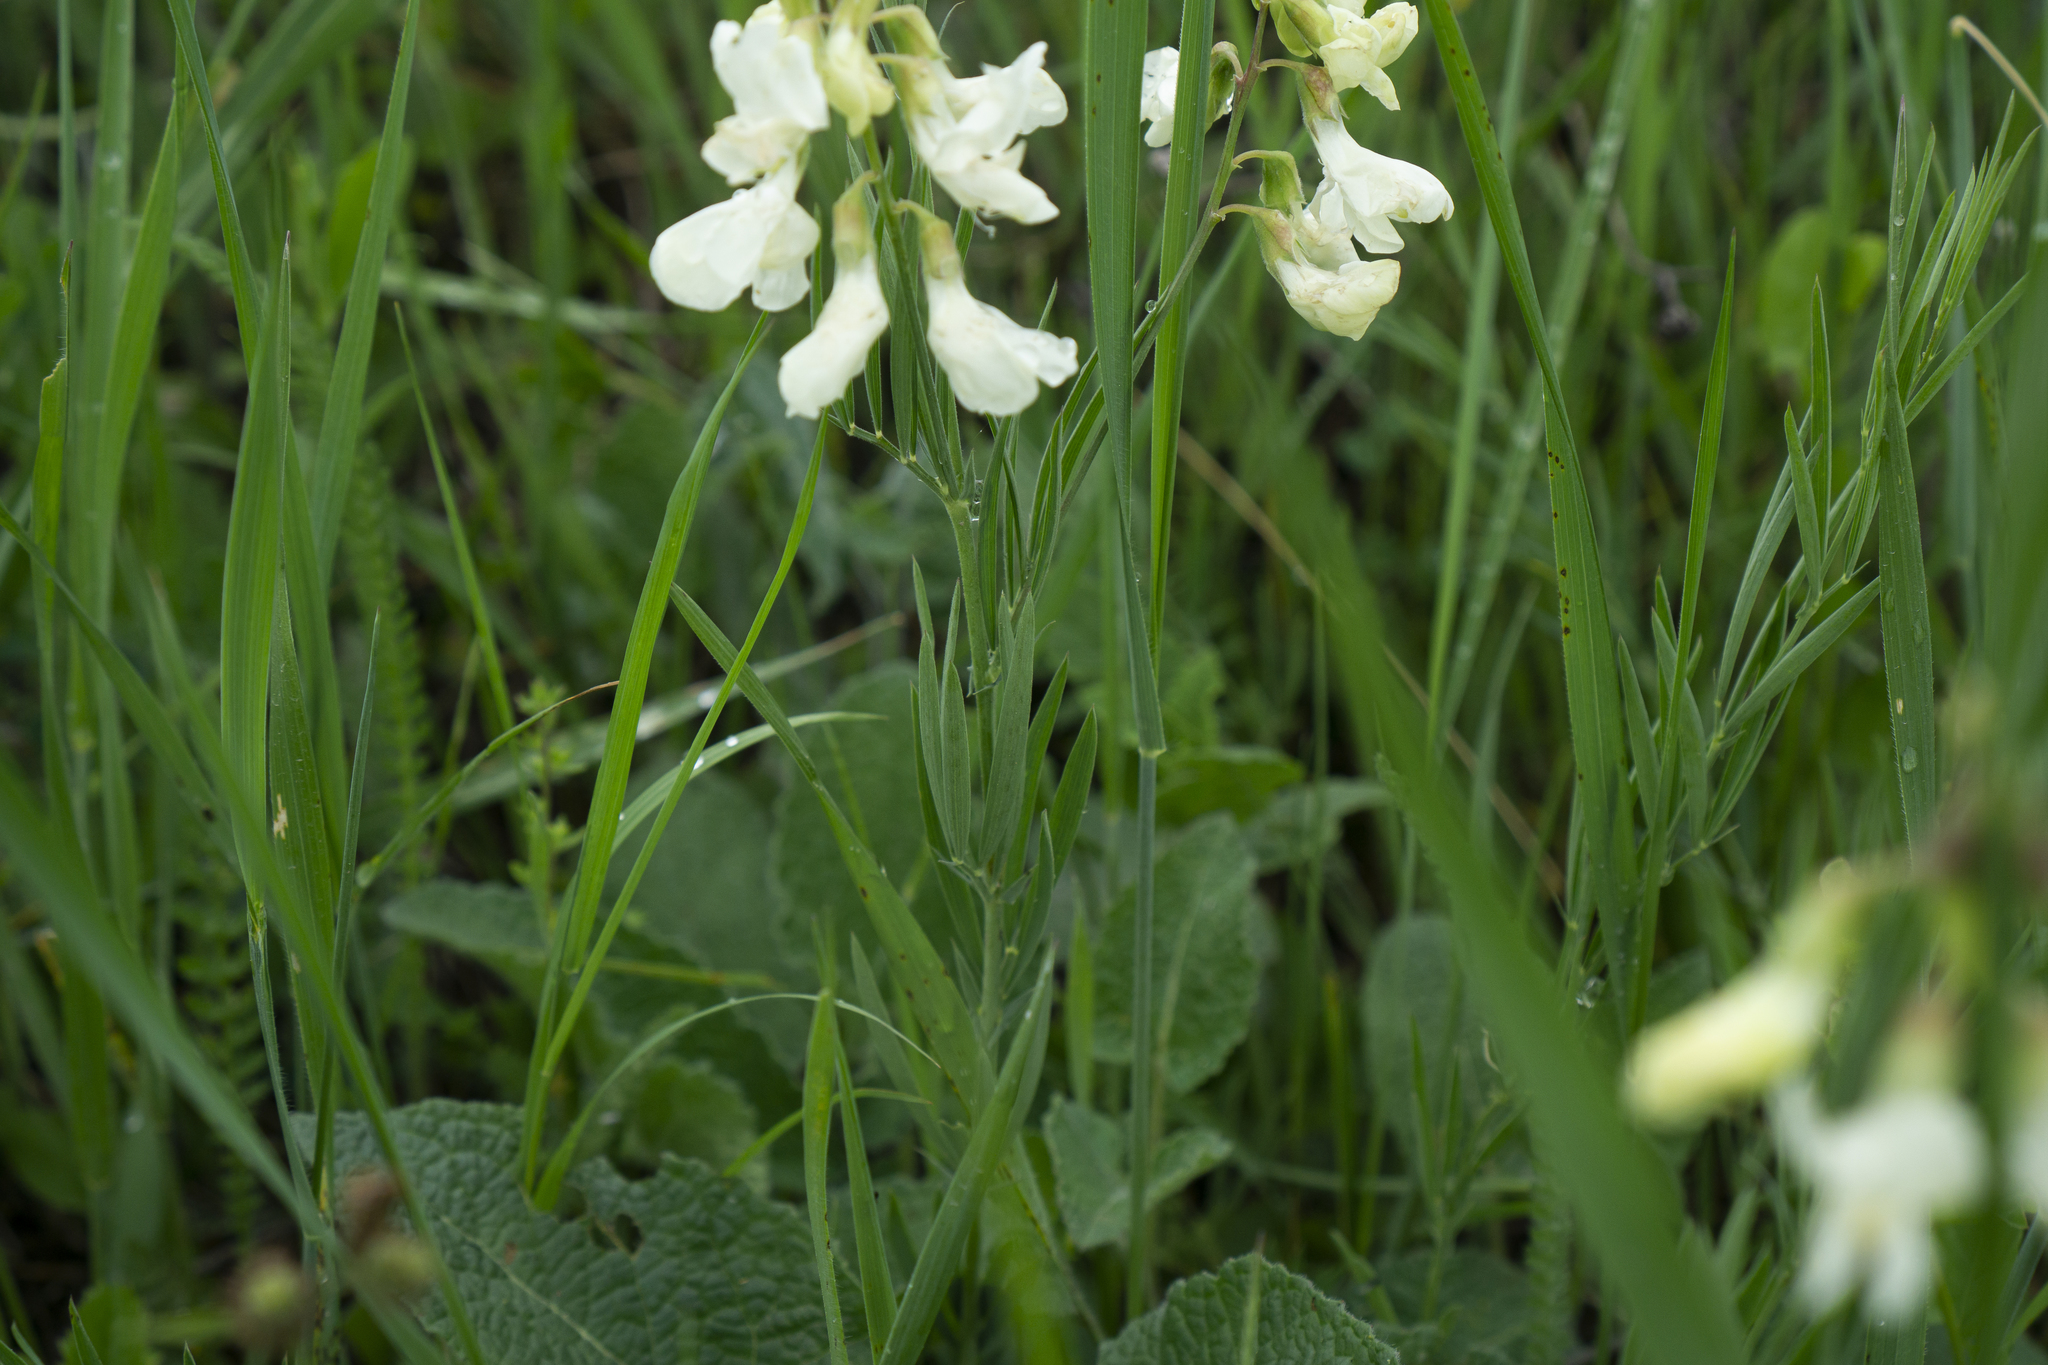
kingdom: Plantae
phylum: Tracheophyta
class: Magnoliopsida
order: Fabales
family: Fabaceae
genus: Lathyrus
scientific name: Lathyrus pannonicus
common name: Pea
